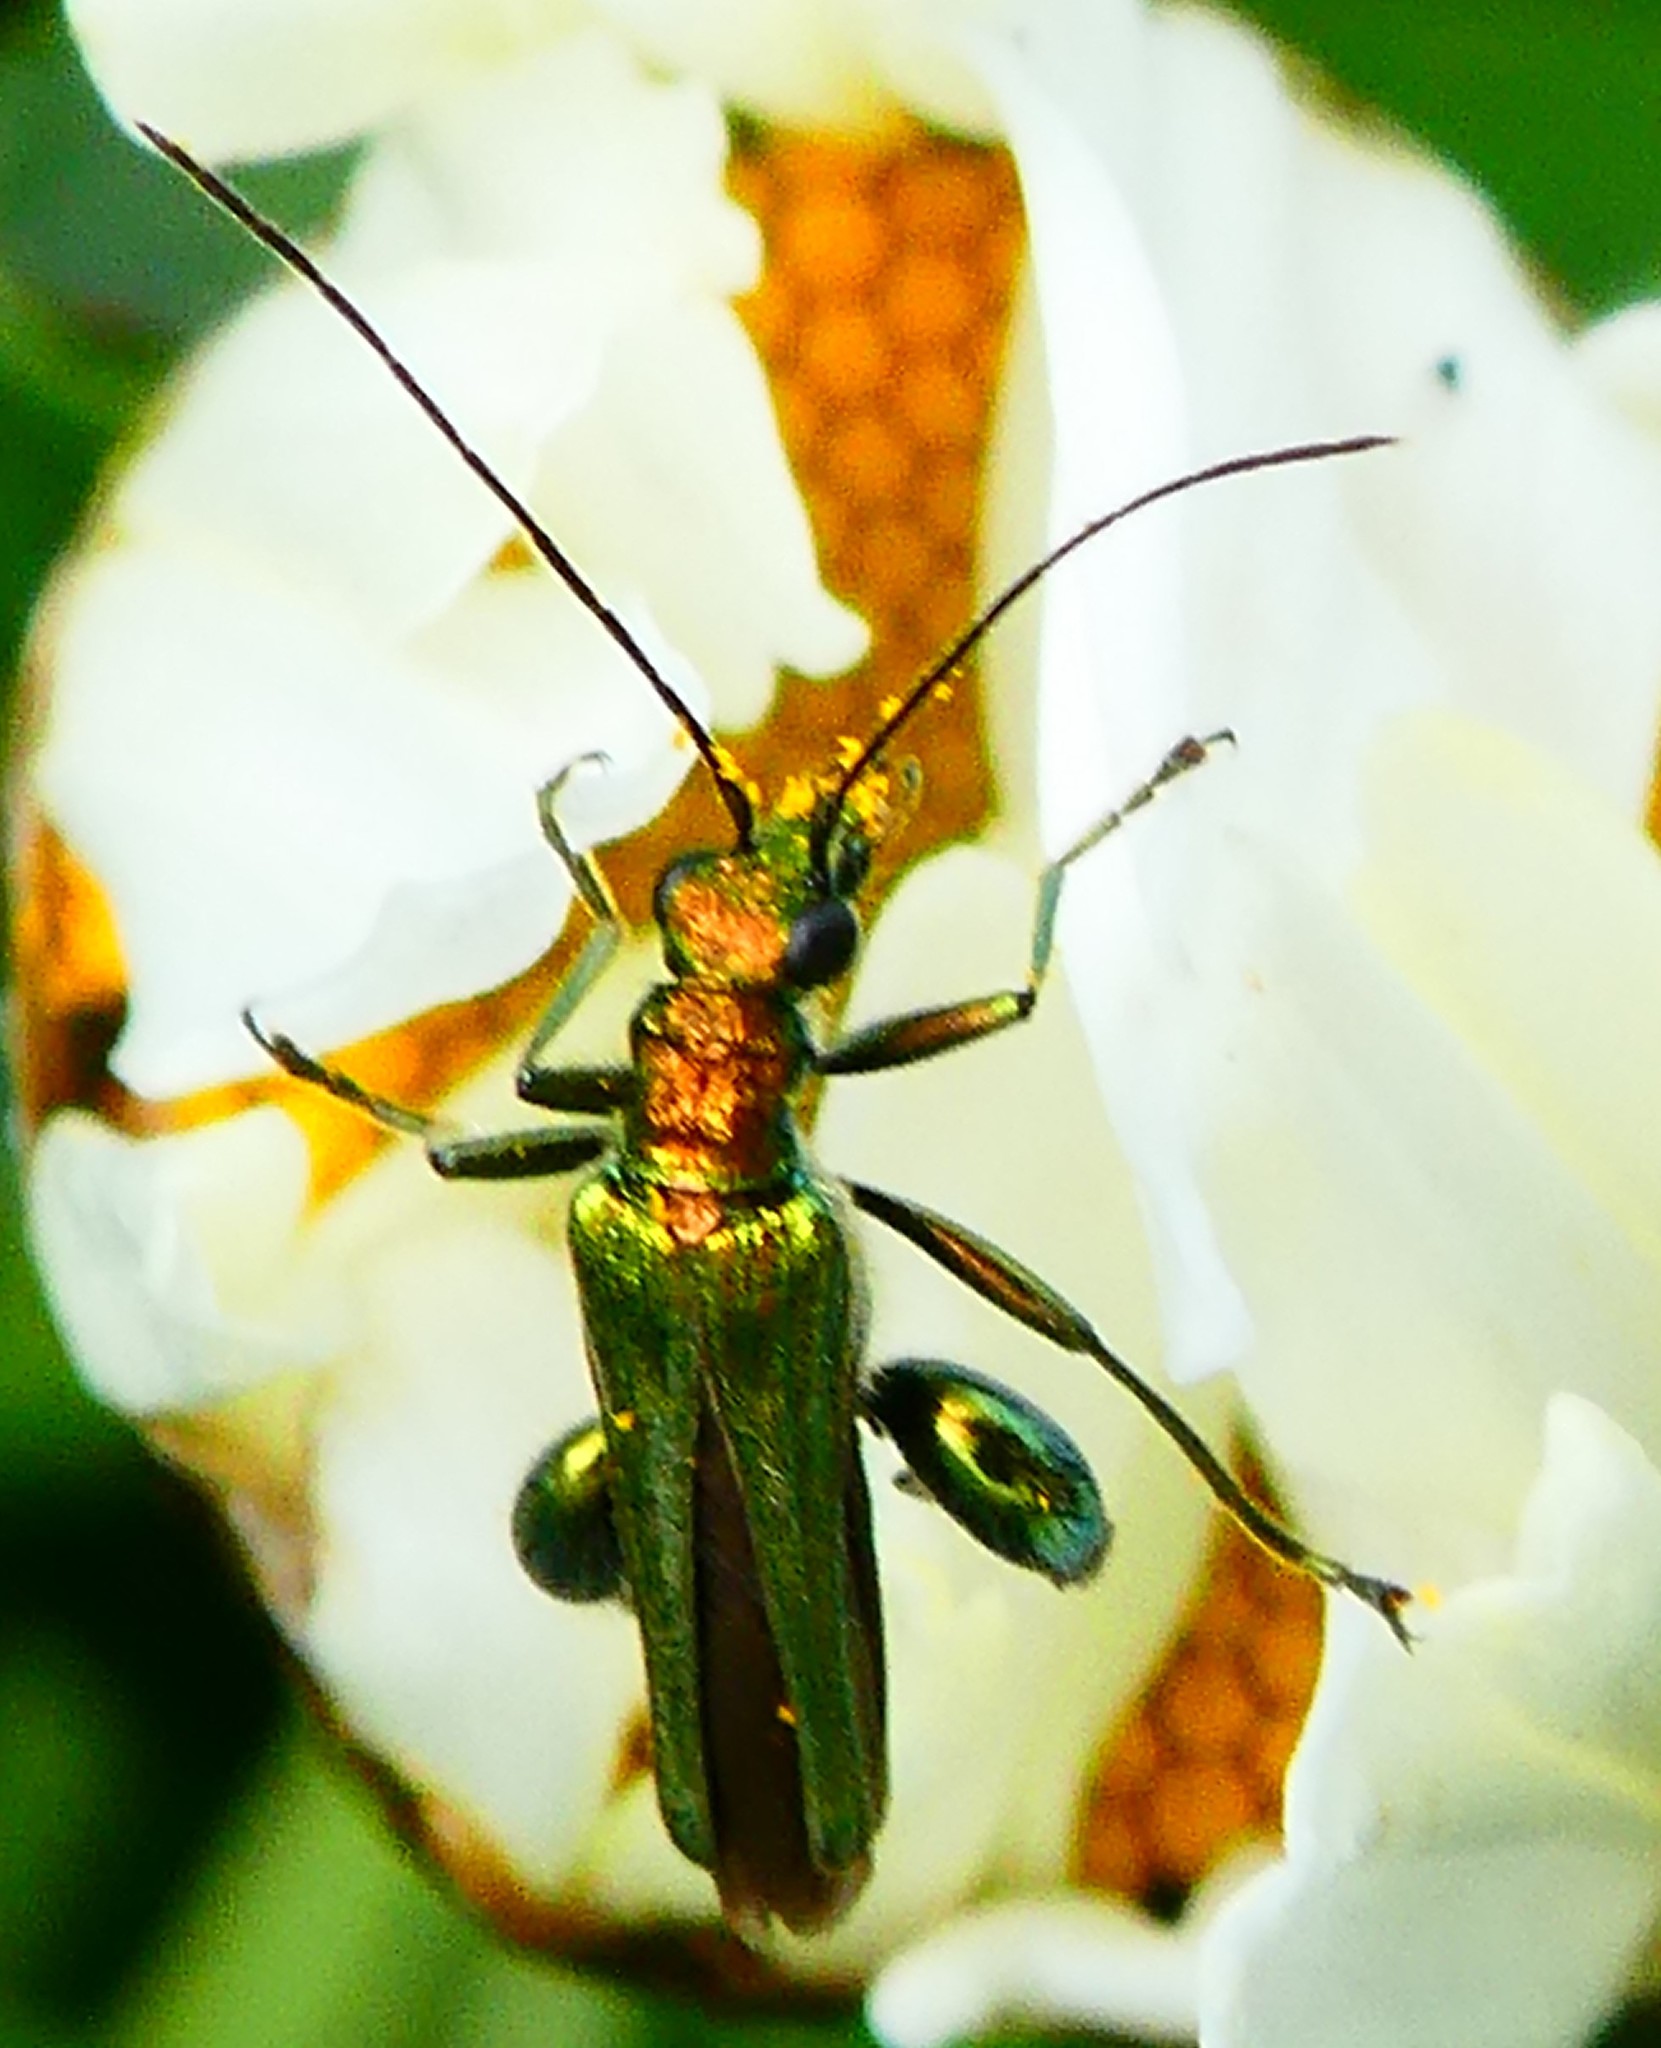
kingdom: Animalia
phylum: Arthropoda
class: Insecta
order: Coleoptera
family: Oedemeridae
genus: Oedemera
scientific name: Oedemera nobilis
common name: Swollen-thighed beetle
